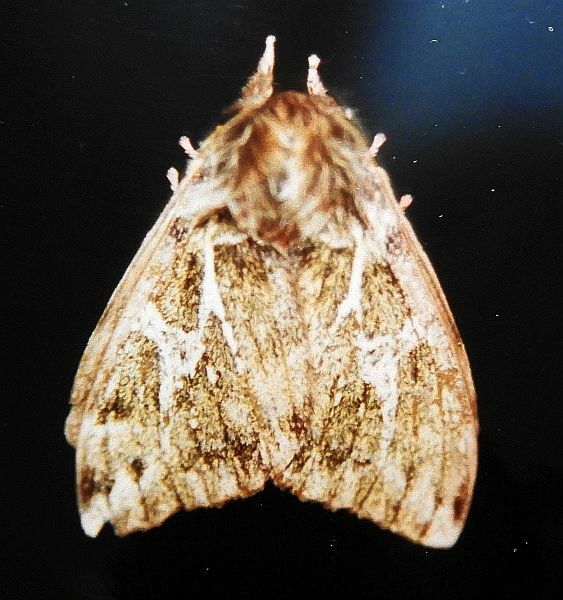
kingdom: Animalia
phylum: Arthropoda
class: Insecta
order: Lepidoptera
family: Saturniidae
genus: Dirphiopsis
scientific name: Dirphiopsis epiolina
